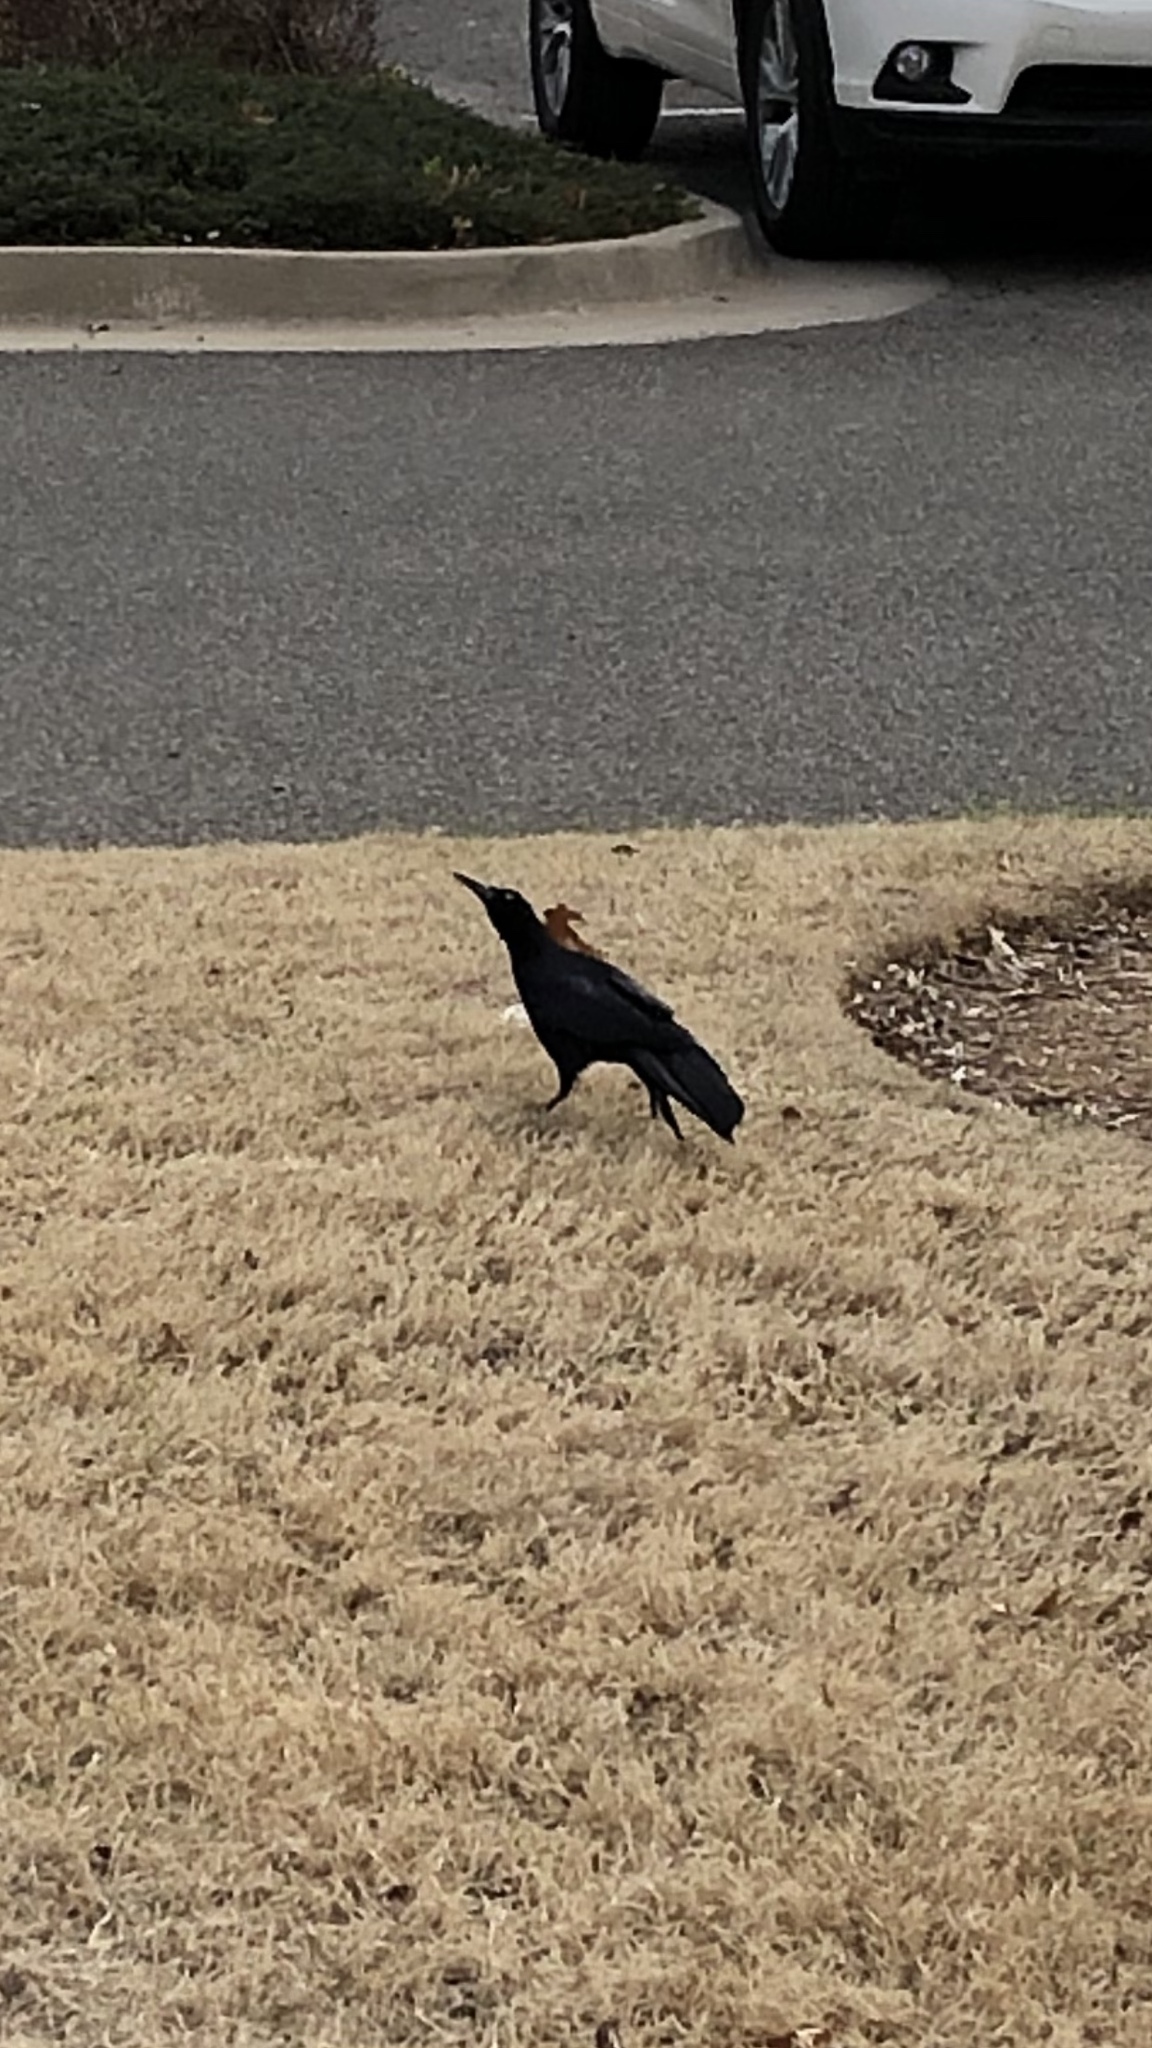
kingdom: Animalia
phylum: Chordata
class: Aves
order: Passeriformes
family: Icteridae
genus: Quiscalus
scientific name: Quiscalus mexicanus
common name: Great-tailed grackle
